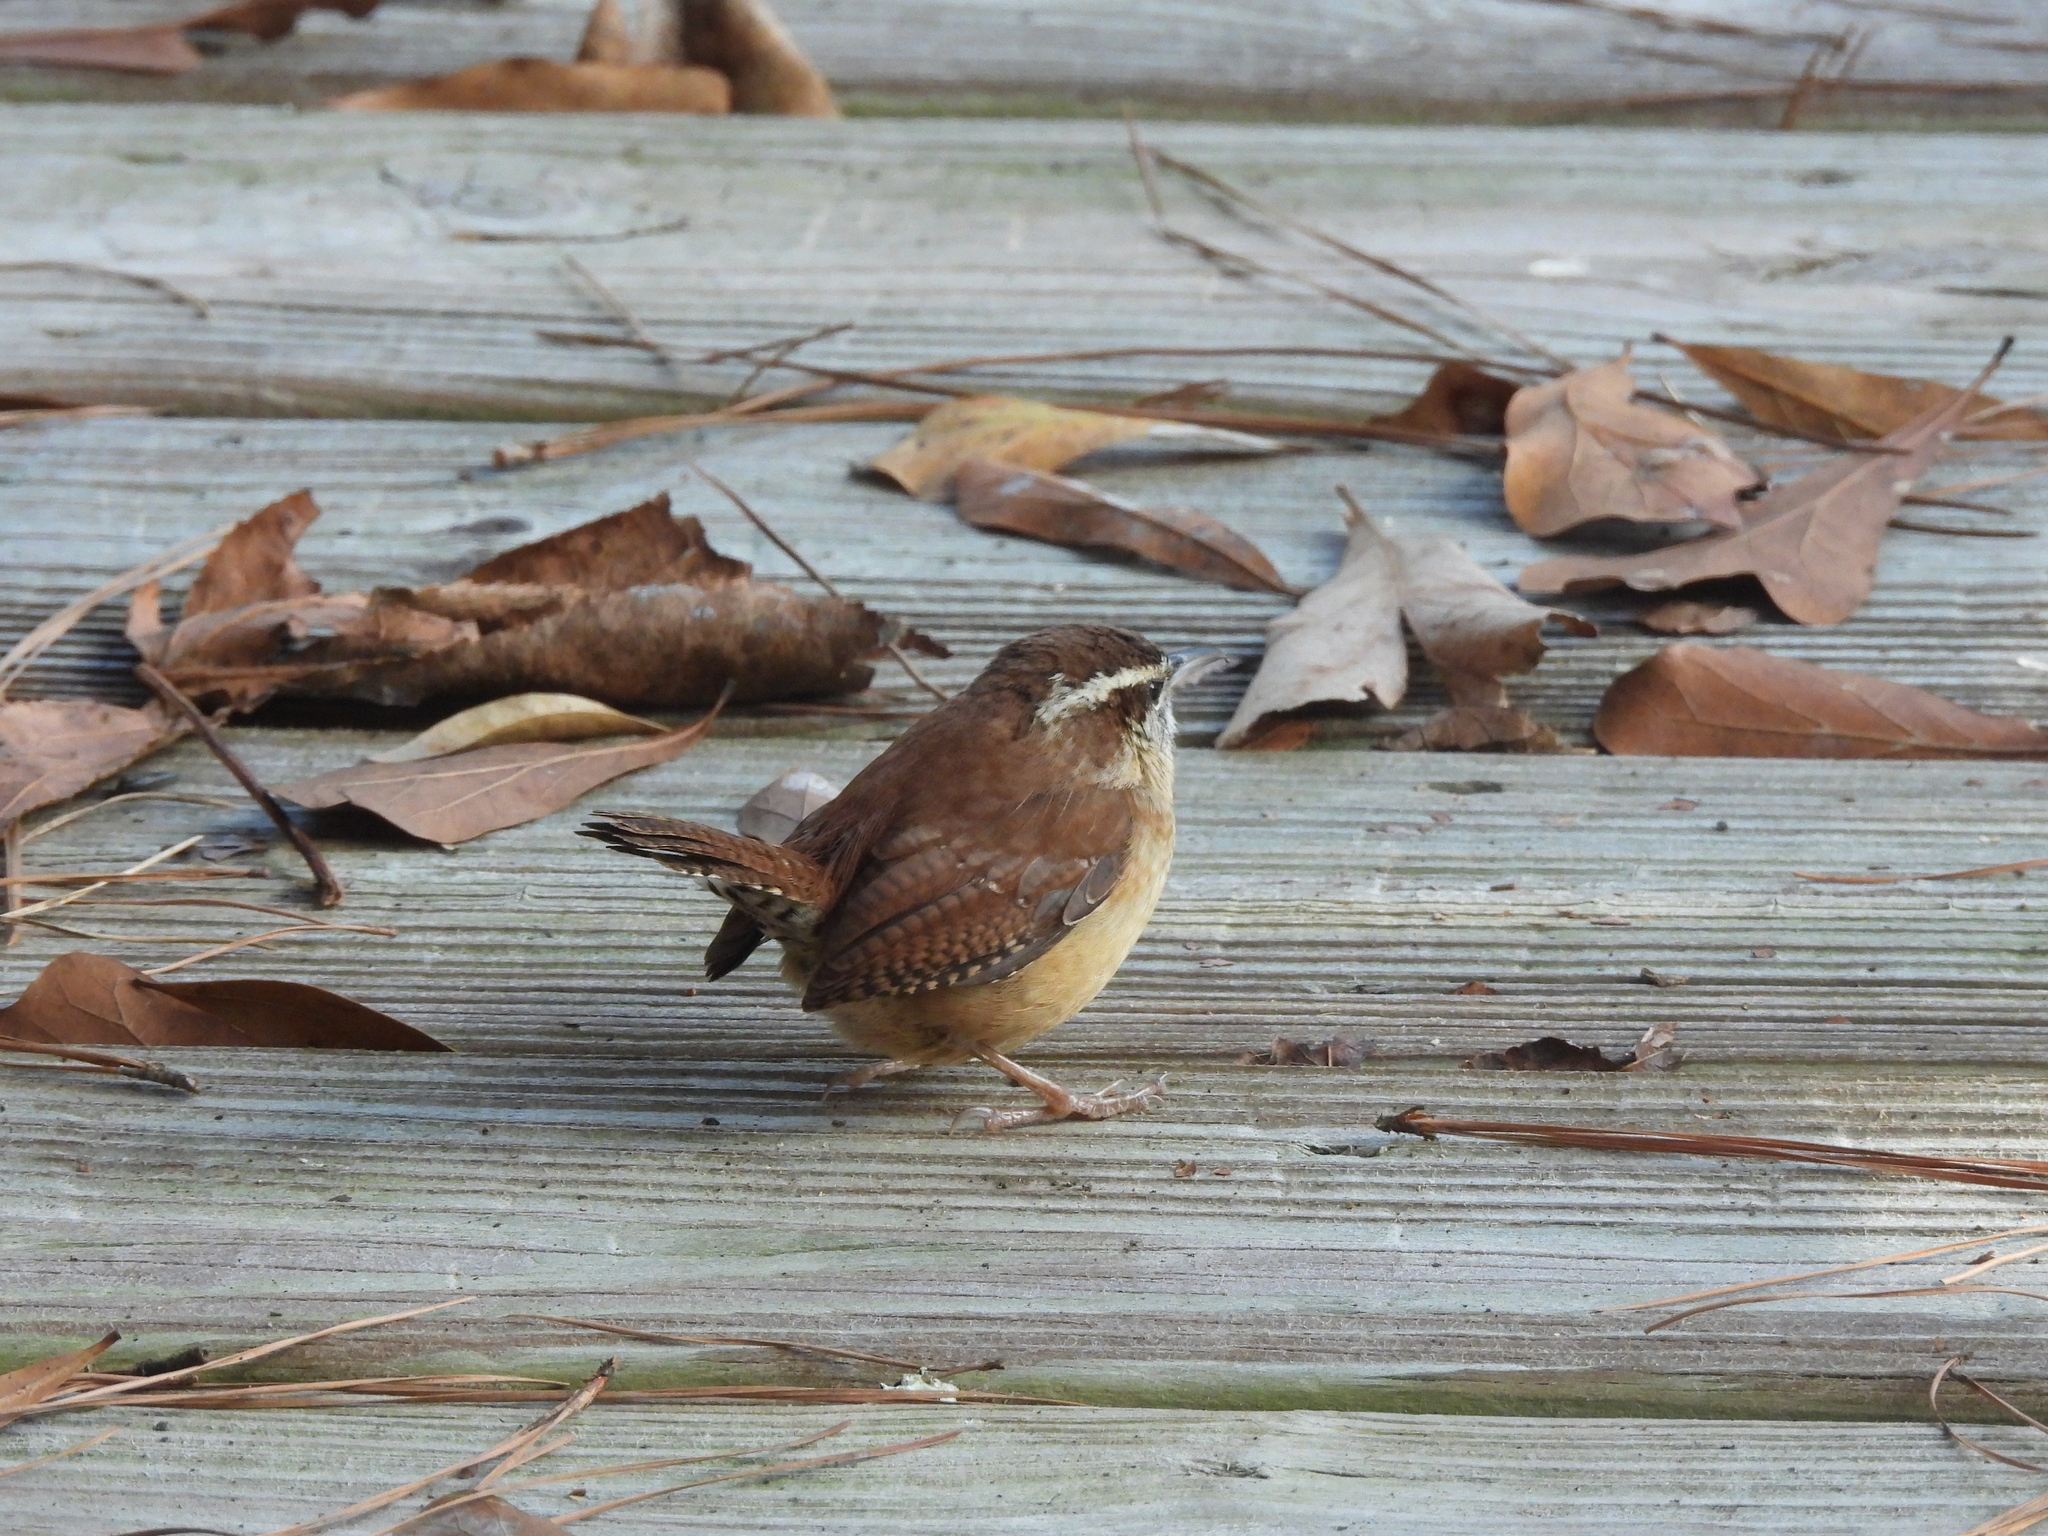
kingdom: Animalia
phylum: Chordata
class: Aves
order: Passeriformes
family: Troglodytidae
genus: Thryothorus
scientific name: Thryothorus ludovicianus
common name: Carolina wren
